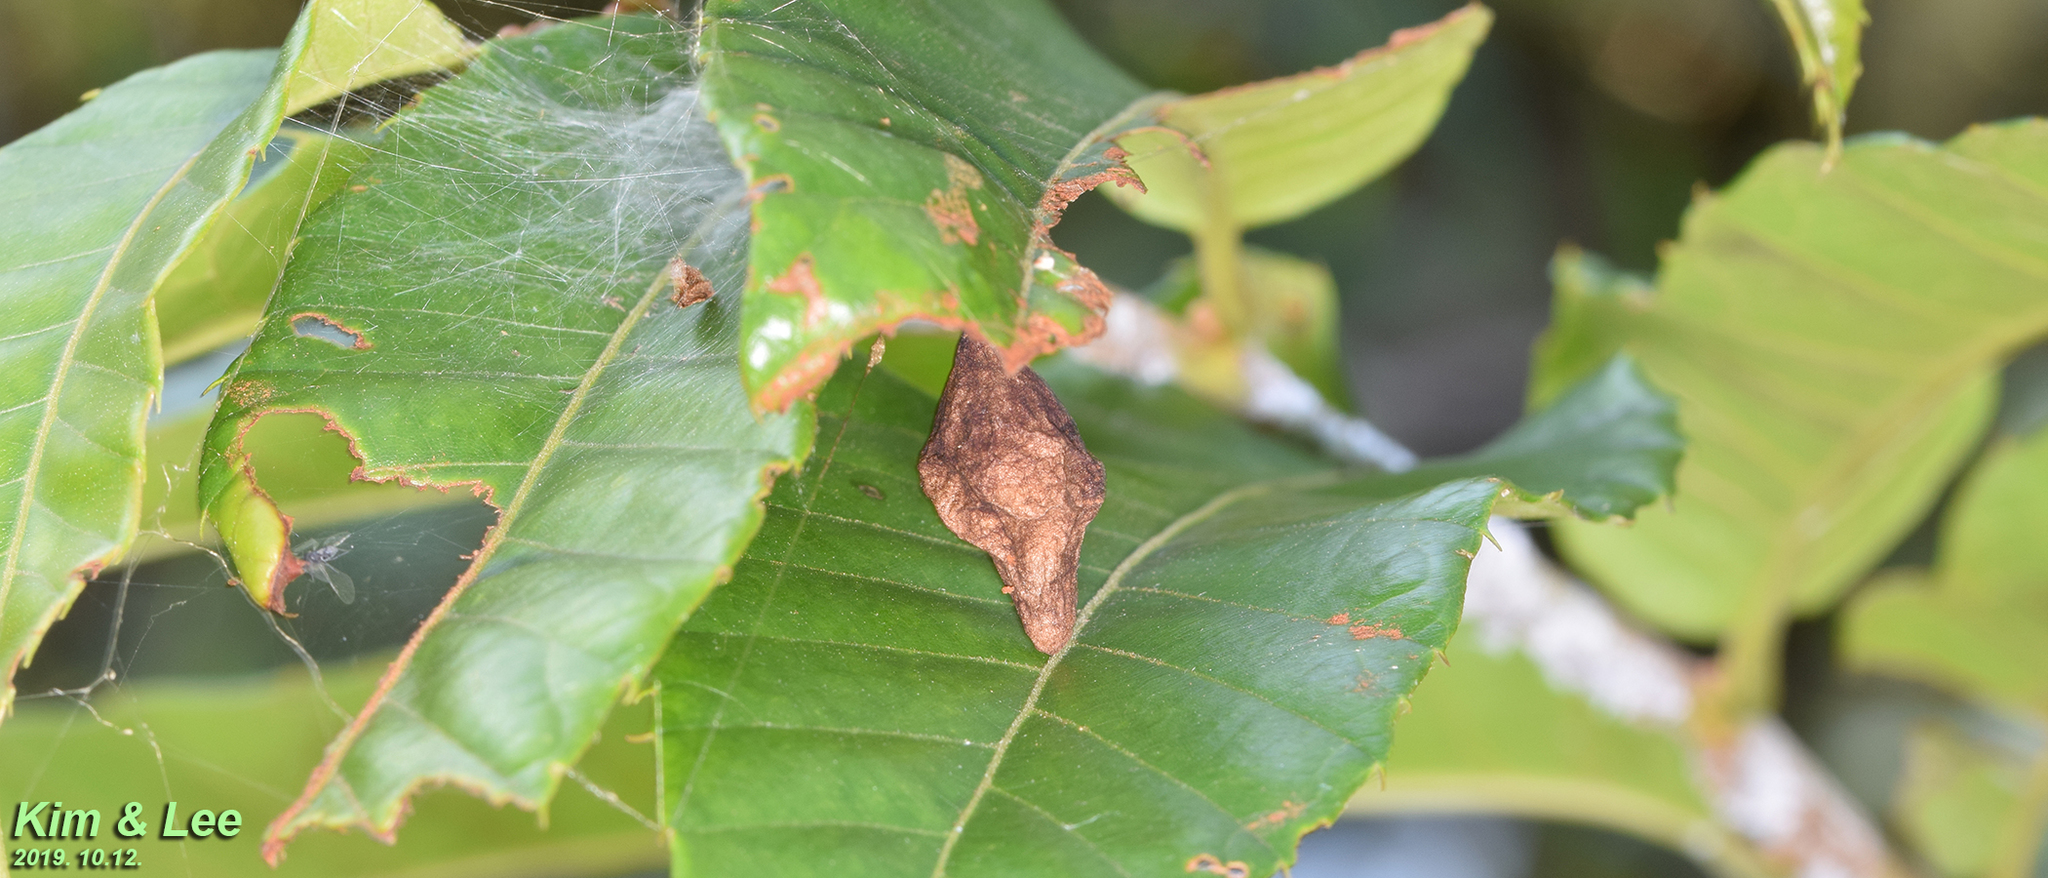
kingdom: Animalia
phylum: Arthropoda
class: Arachnida
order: Araneae
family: Araneidae
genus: Cyrtarachne
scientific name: Cyrtarachne inaequalis
